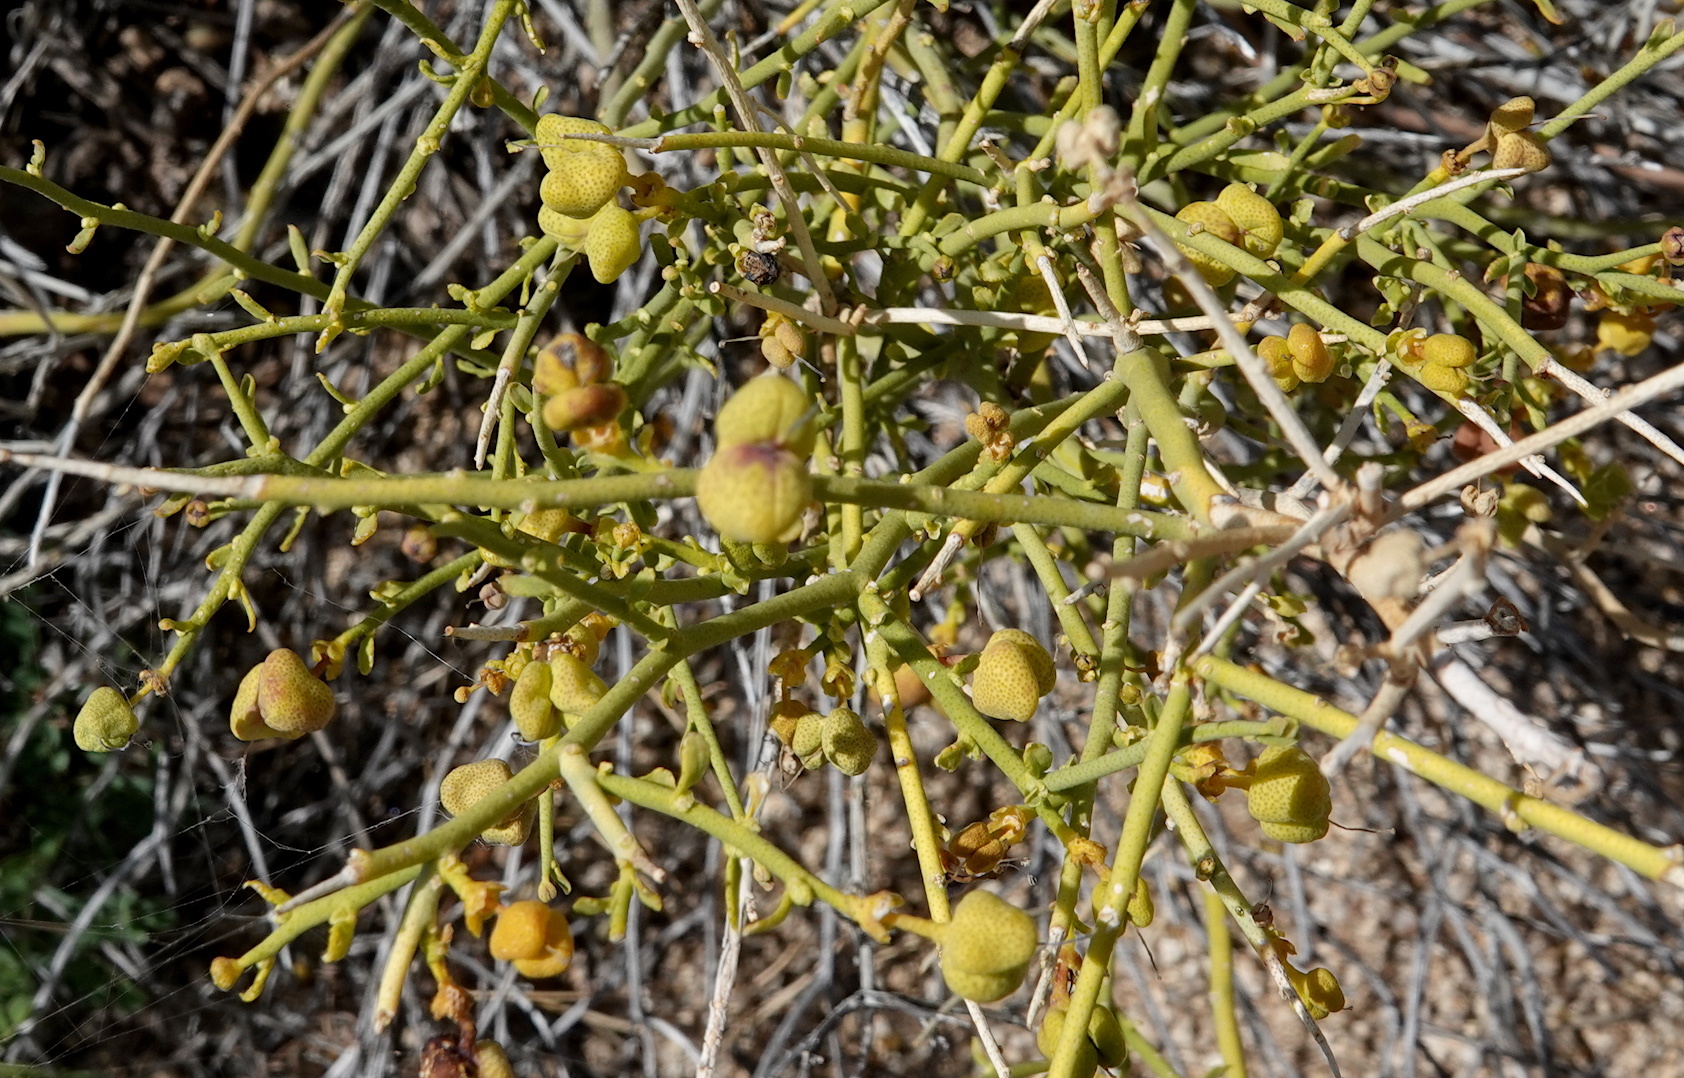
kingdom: Plantae
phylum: Tracheophyta
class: Magnoliopsida
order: Sapindales
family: Rutaceae
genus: Thamnosma
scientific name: Thamnosma montana
